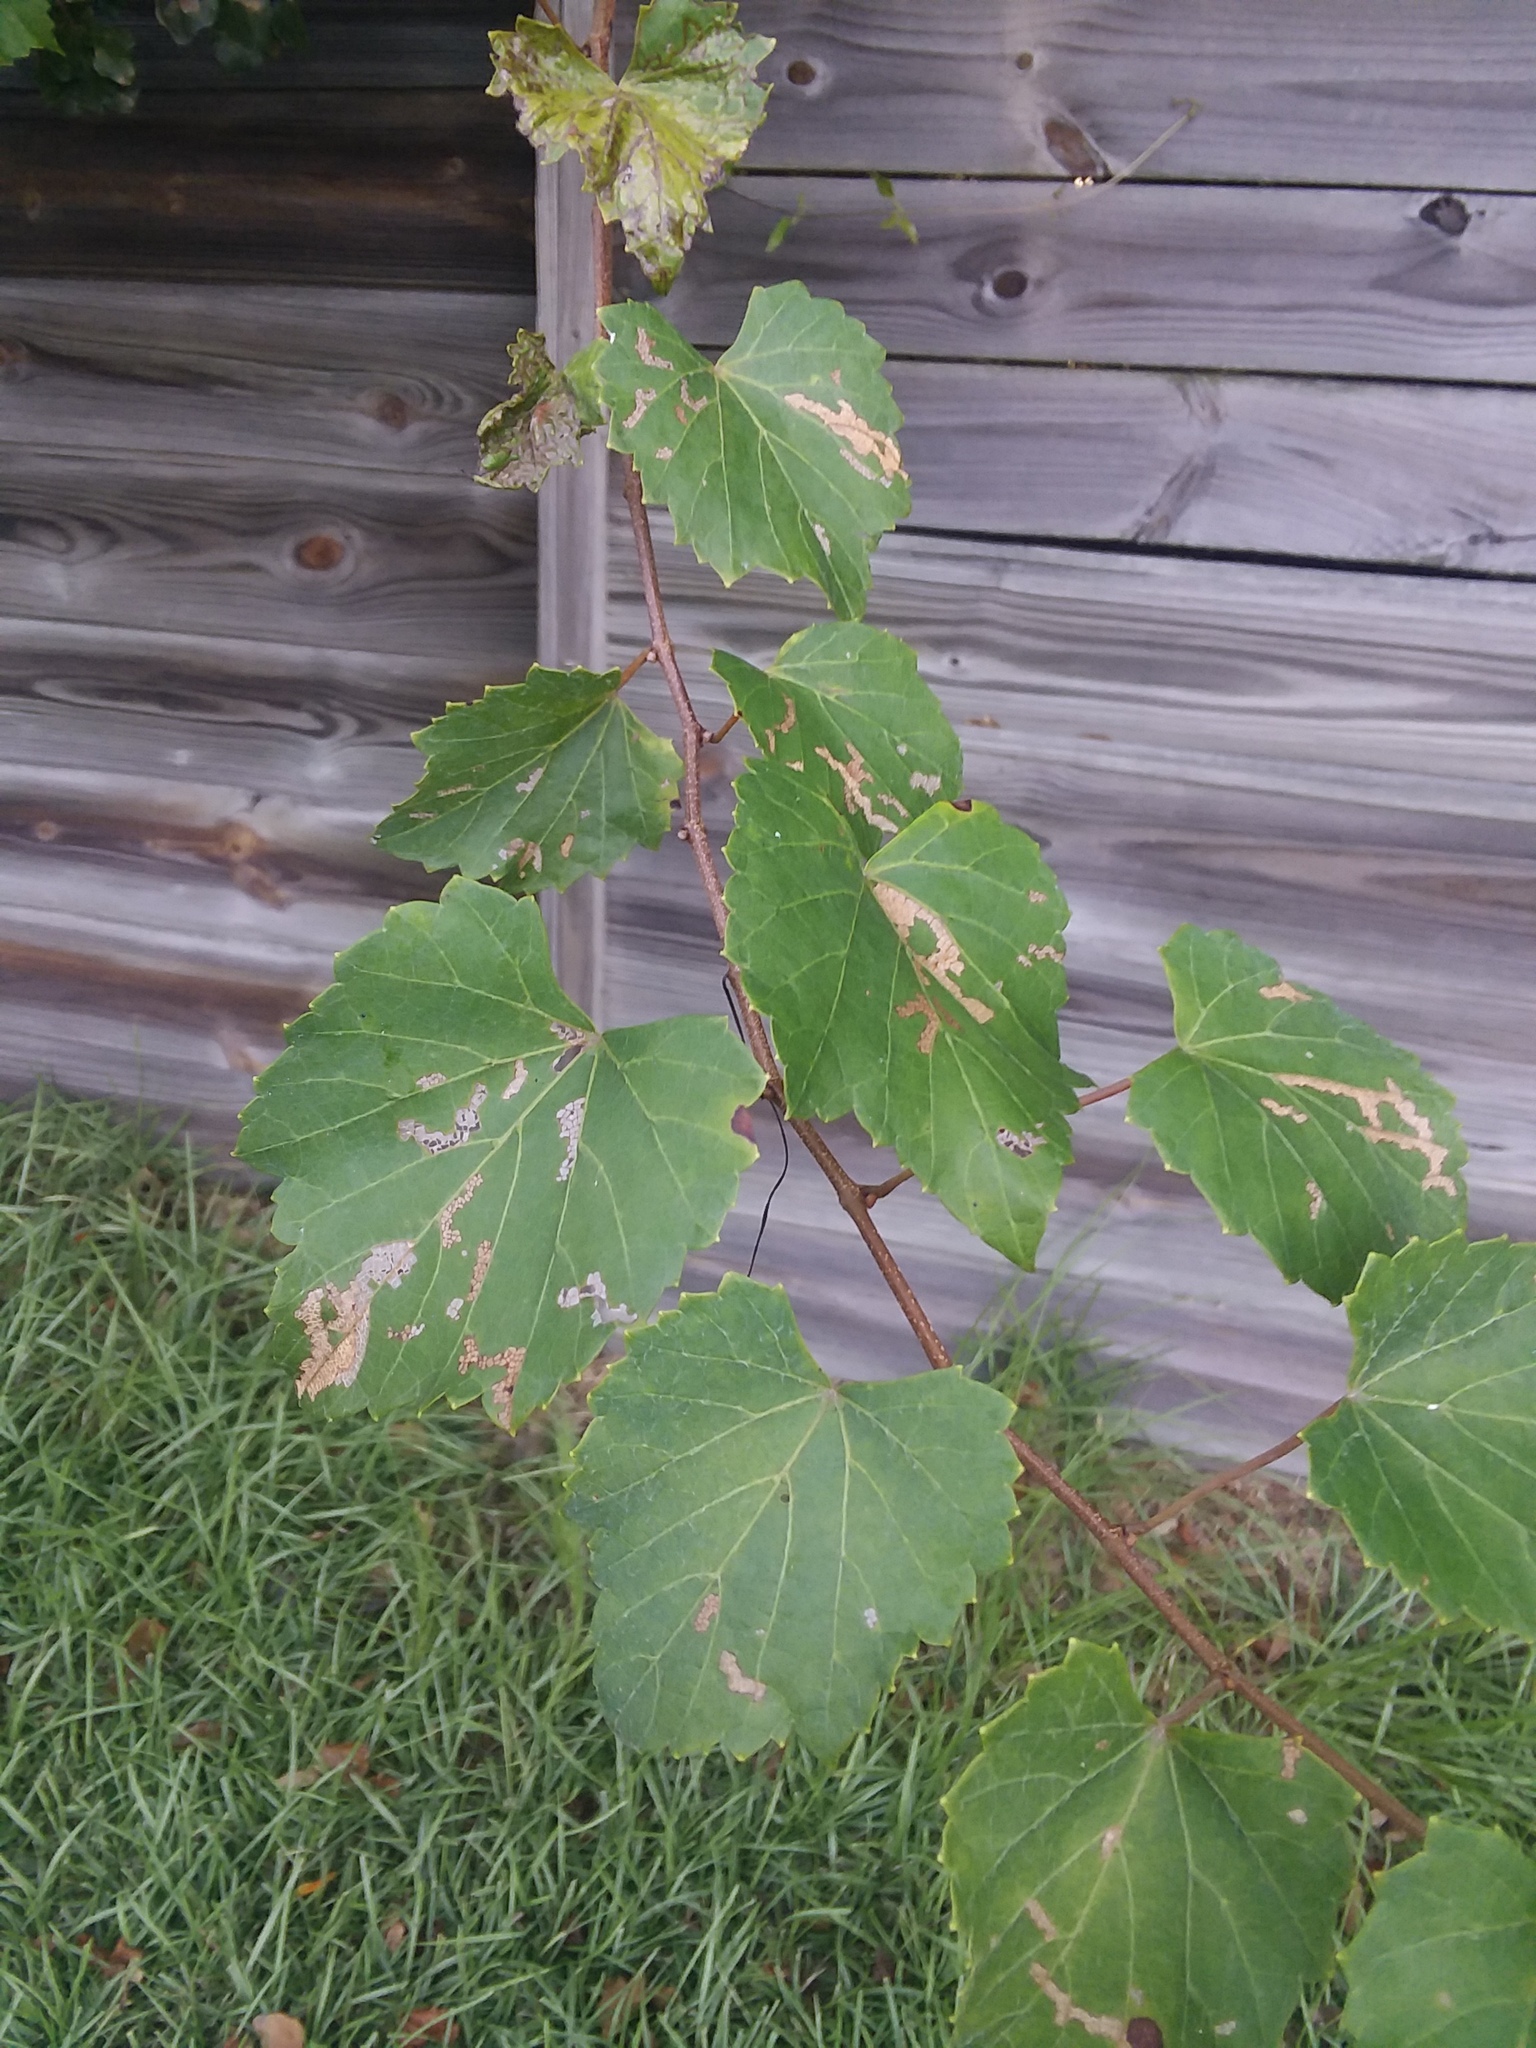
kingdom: Plantae
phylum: Tracheophyta
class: Magnoliopsida
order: Vitales
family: Vitaceae
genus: Vitis
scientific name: Vitis rotundifolia
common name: Muscadine grape
